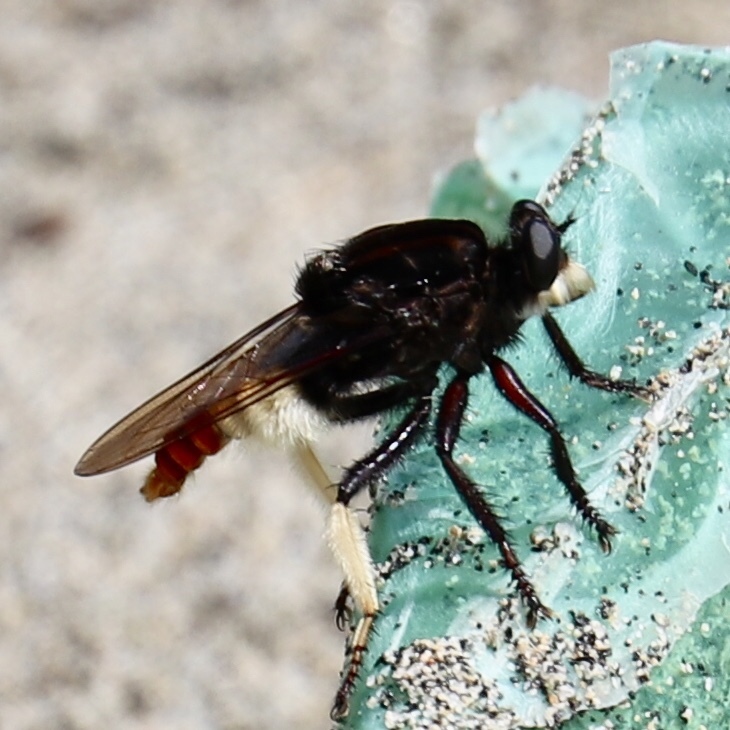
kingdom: Animalia
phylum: Arthropoda
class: Insecta
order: Diptera
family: Asilidae
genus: Eccritosia
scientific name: Eccritosia barbata
